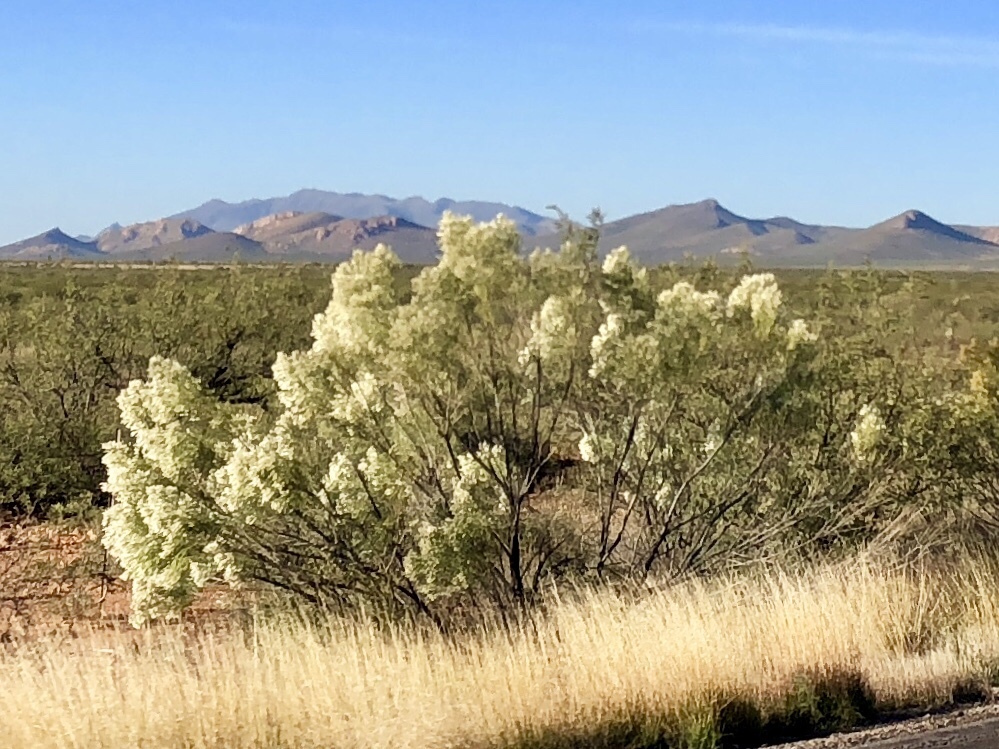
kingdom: Plantae
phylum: Tracheophyta
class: Magnoliopsida
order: Asterales
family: Asteraceae
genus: Baccharis
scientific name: Baccharis sarothroides
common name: Desert-broom
